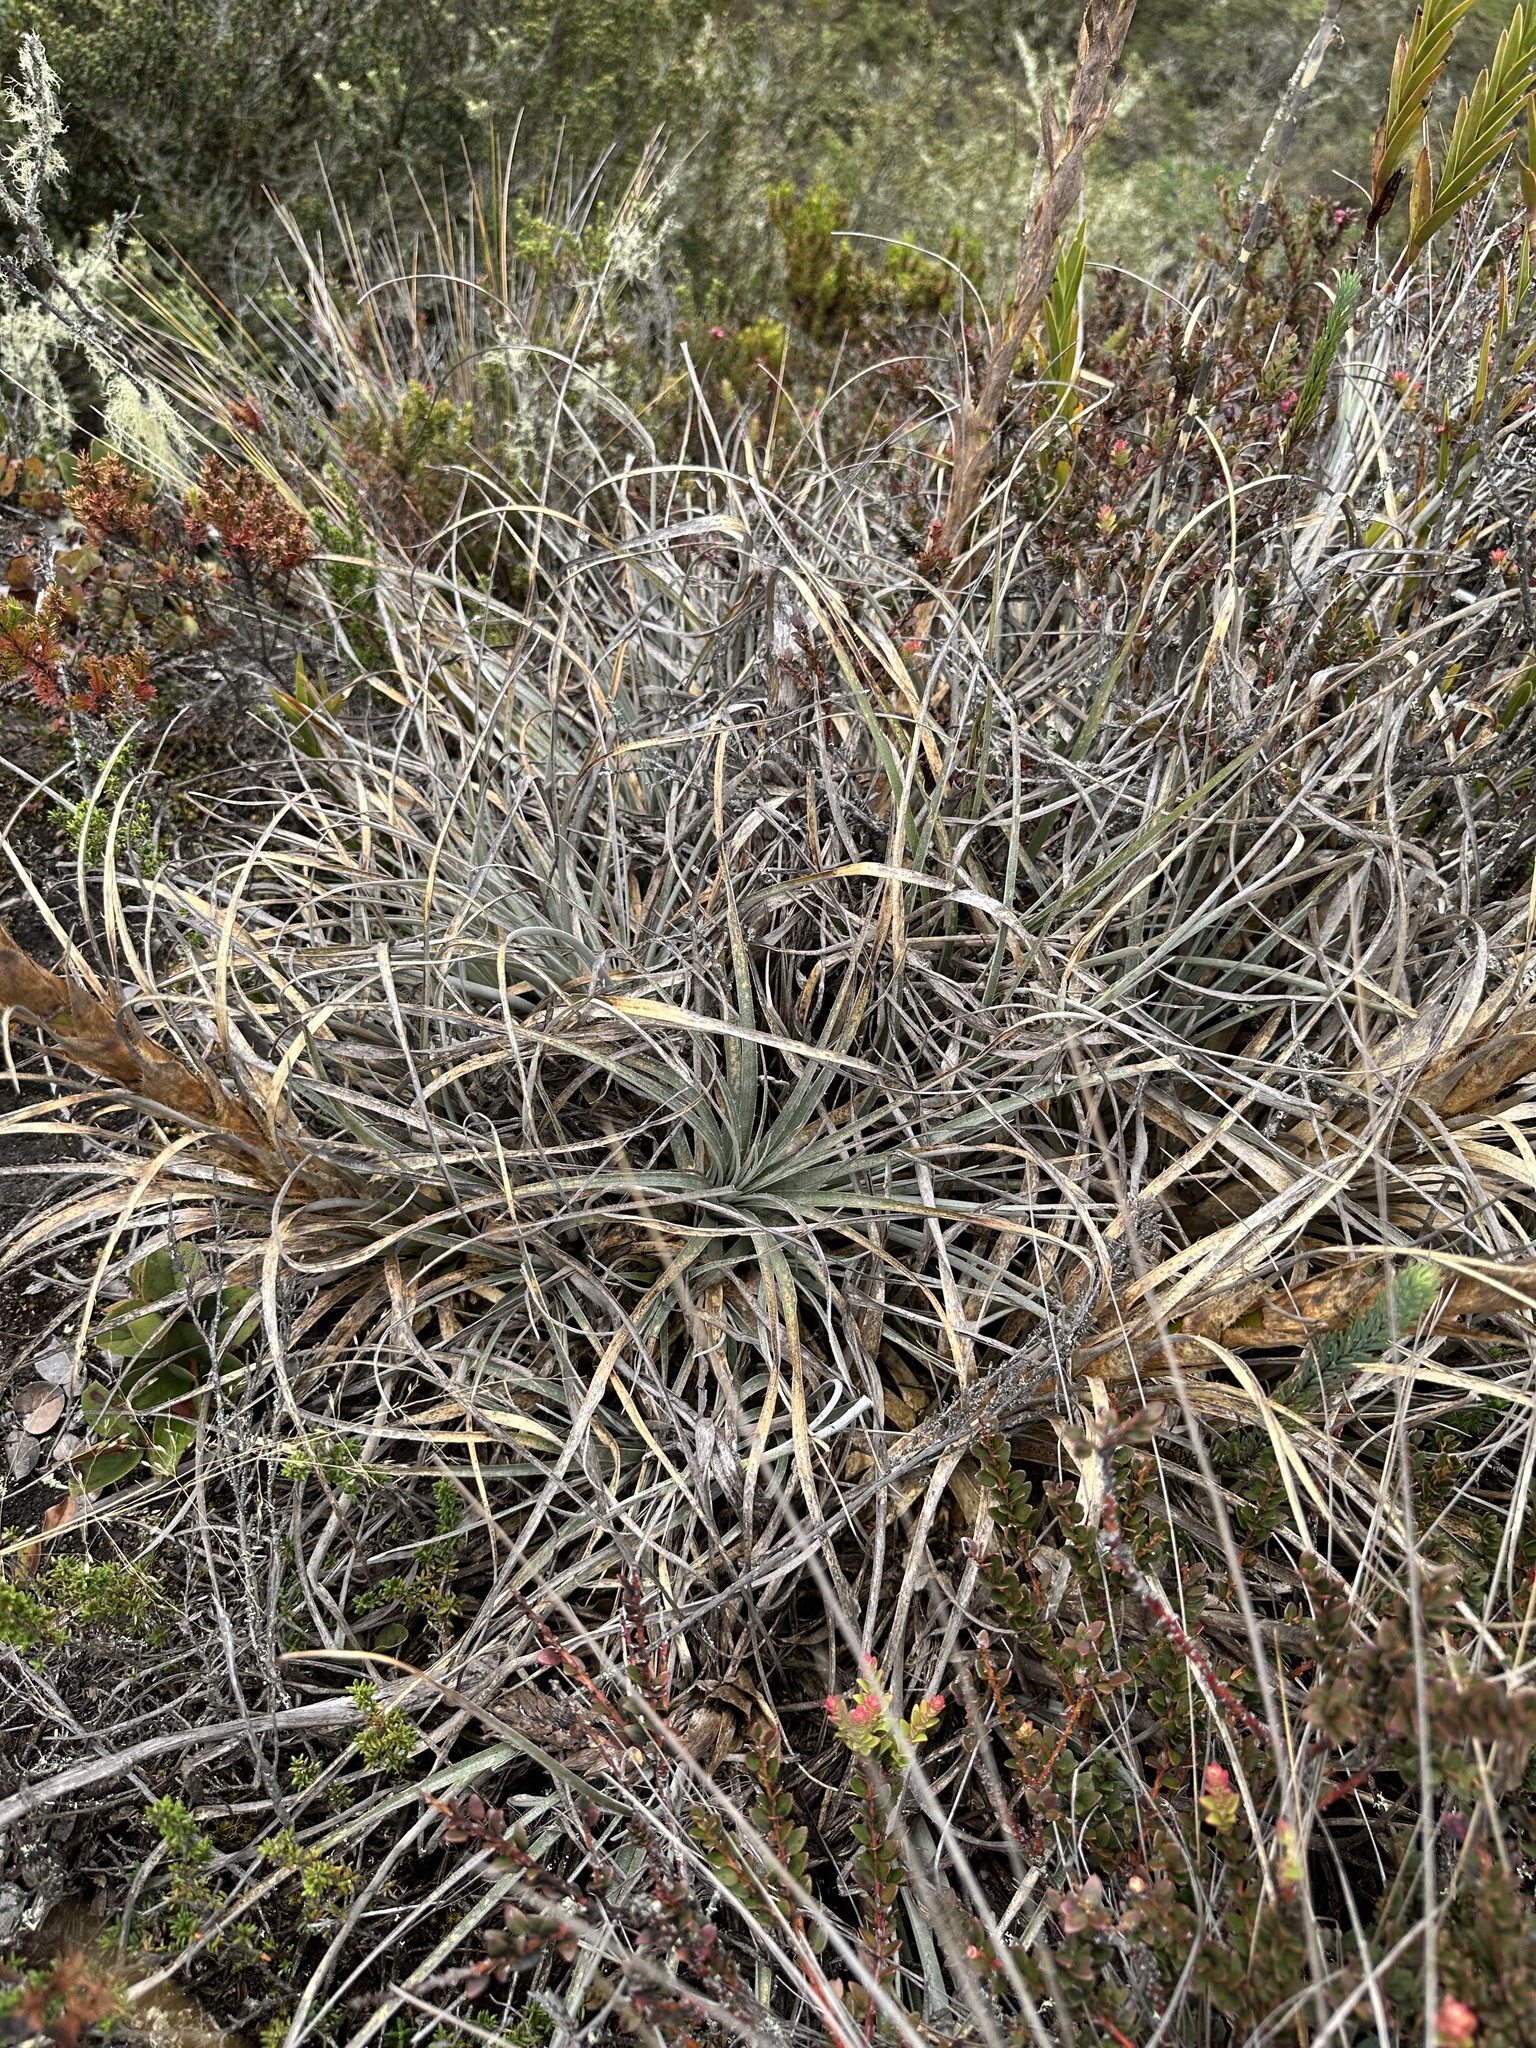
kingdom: Plantae
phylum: Tracheophyta
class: Liliopsida
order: Poales
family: Bromeliaceae
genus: Puya
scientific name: Puya lineata
